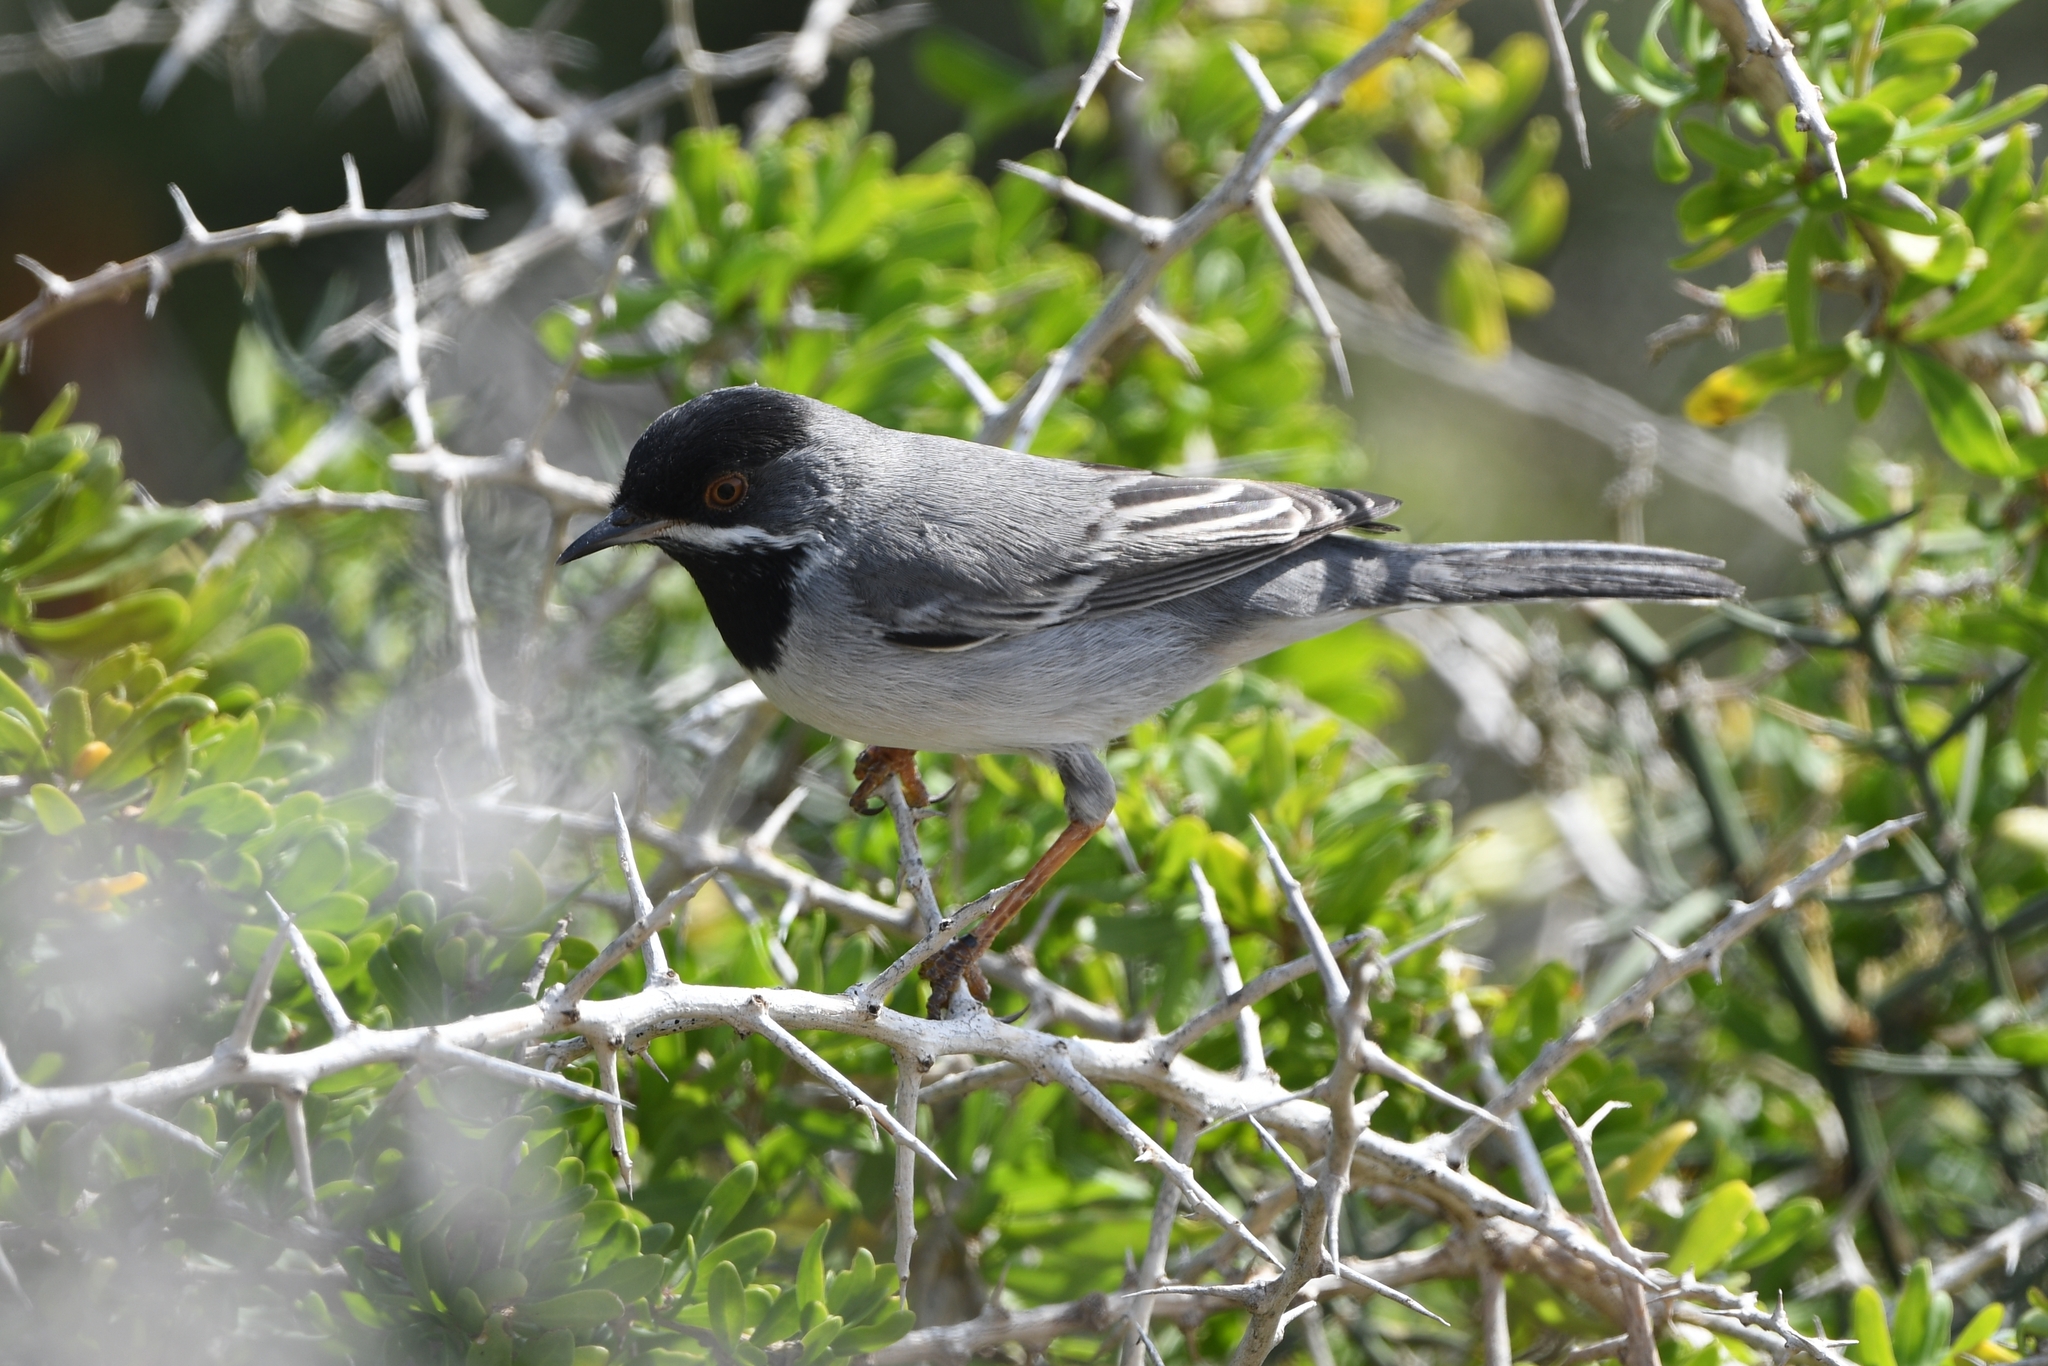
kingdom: Animalia
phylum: Chordata
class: Aves
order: Passeriformes
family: Sylviidae
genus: Sylvia
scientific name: Sylvia ruppeli
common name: Rüppell's warbler
